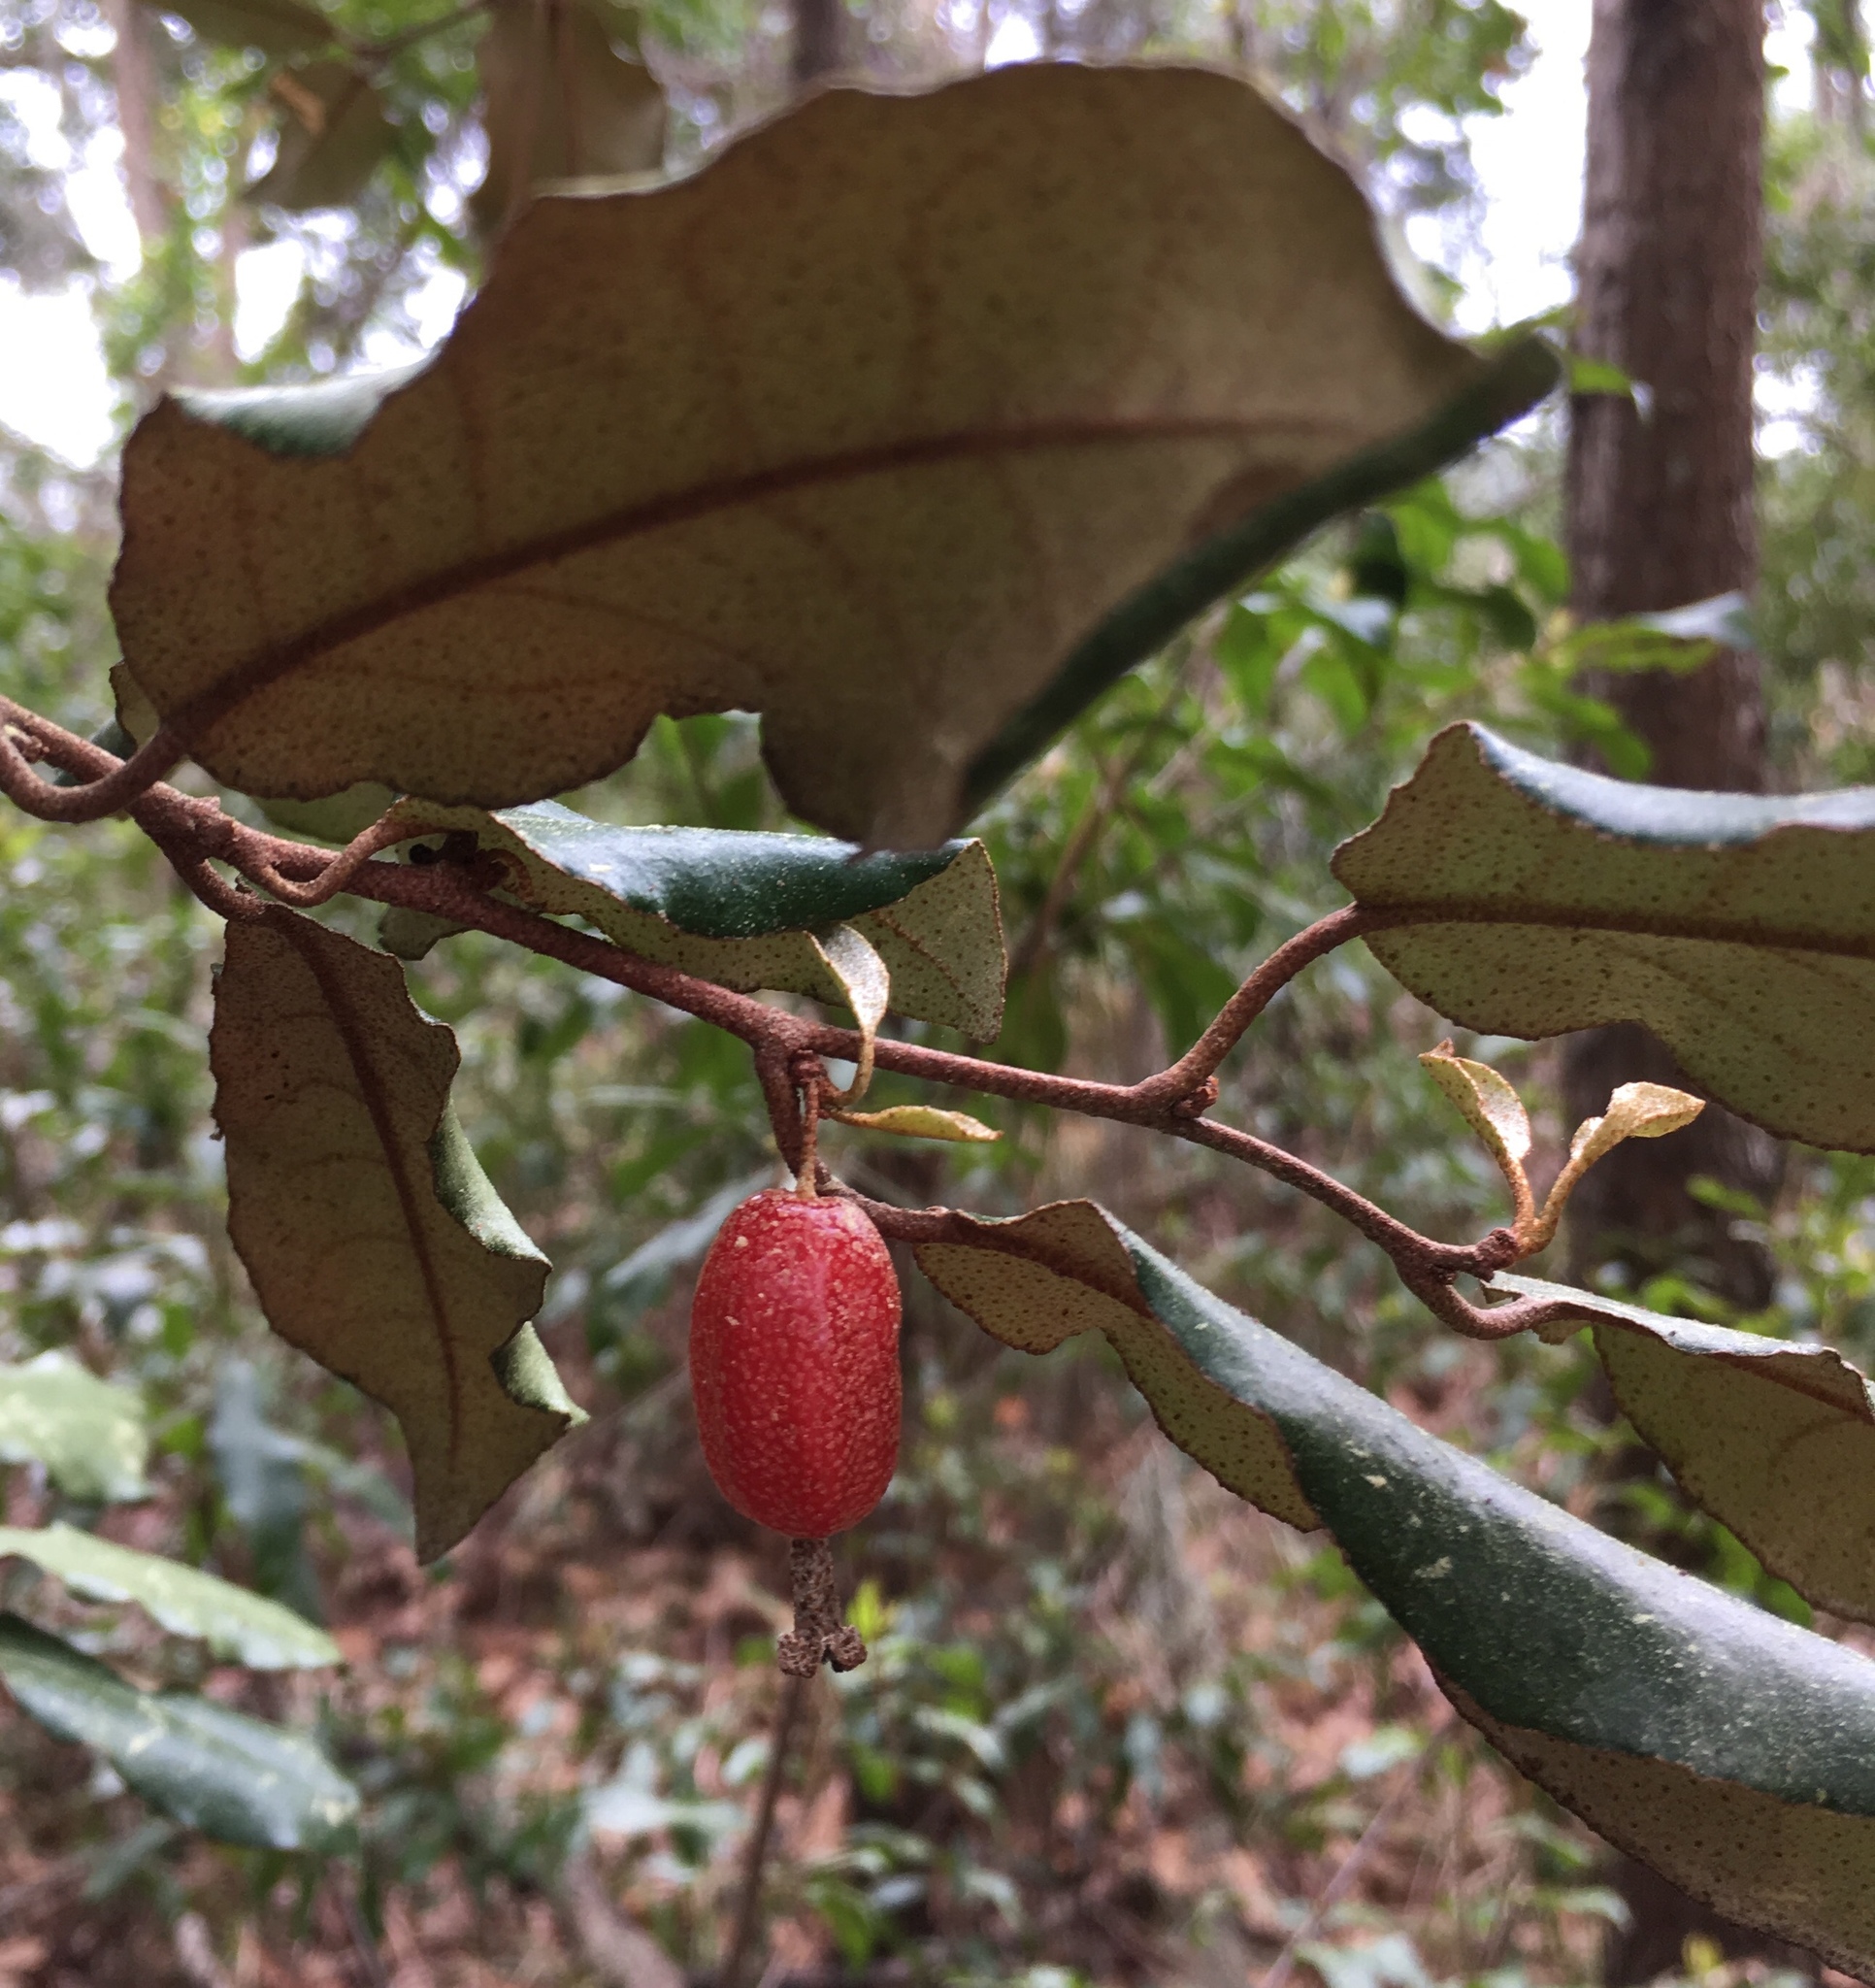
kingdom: Plantae
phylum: Tracheophyta
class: Magnoliopsida
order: Rosales
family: Elaeagnaceae
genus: Elaeagnus
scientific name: Elaeagnus pungens
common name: Spiny oleaster
